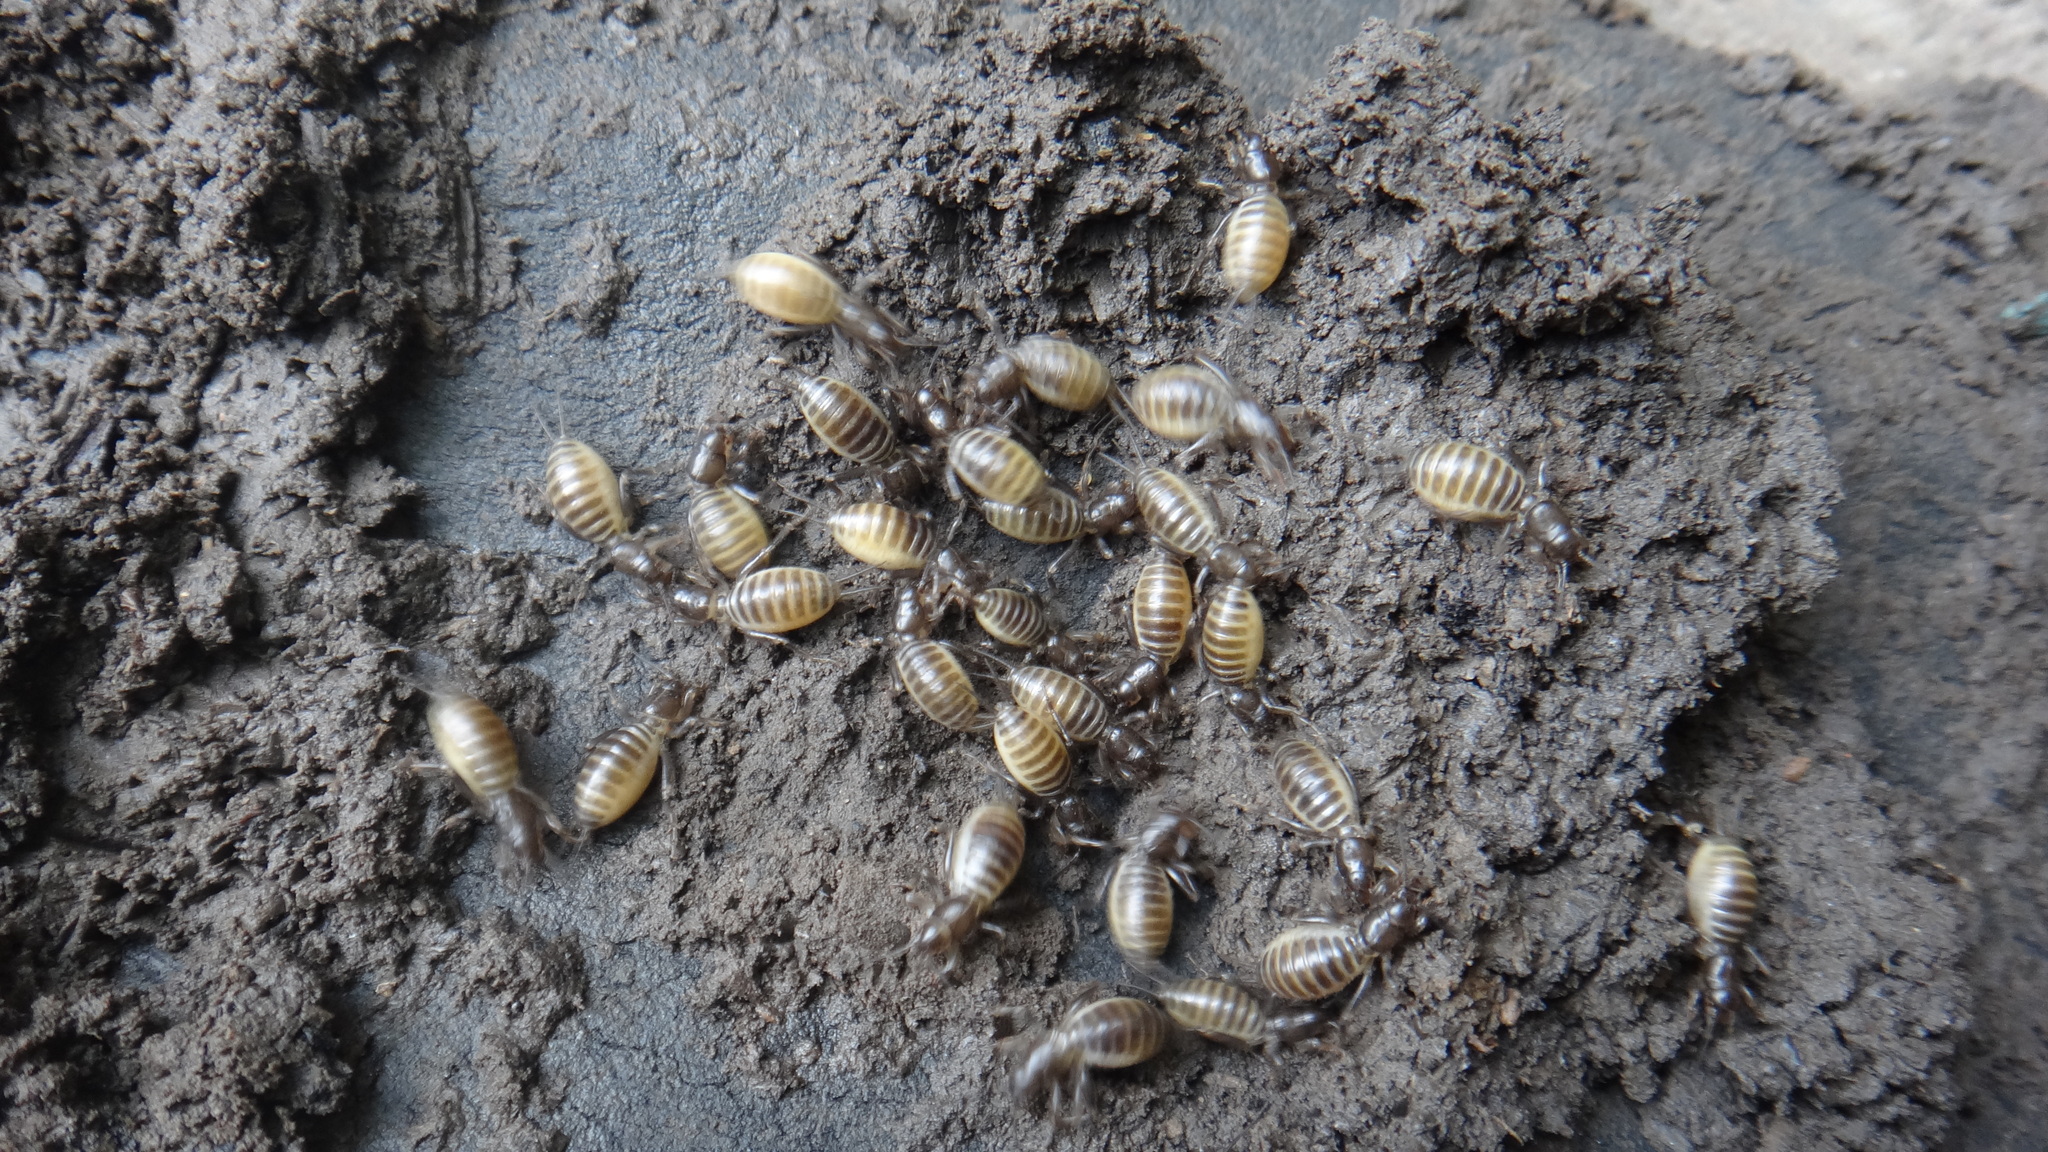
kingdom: Animalia
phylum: Arthropoda
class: Insecta
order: Orthoptera
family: Gryllotalpidae
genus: Gryllotalpa
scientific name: Gryllotalpa gryllotalpa
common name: European mole cricket
